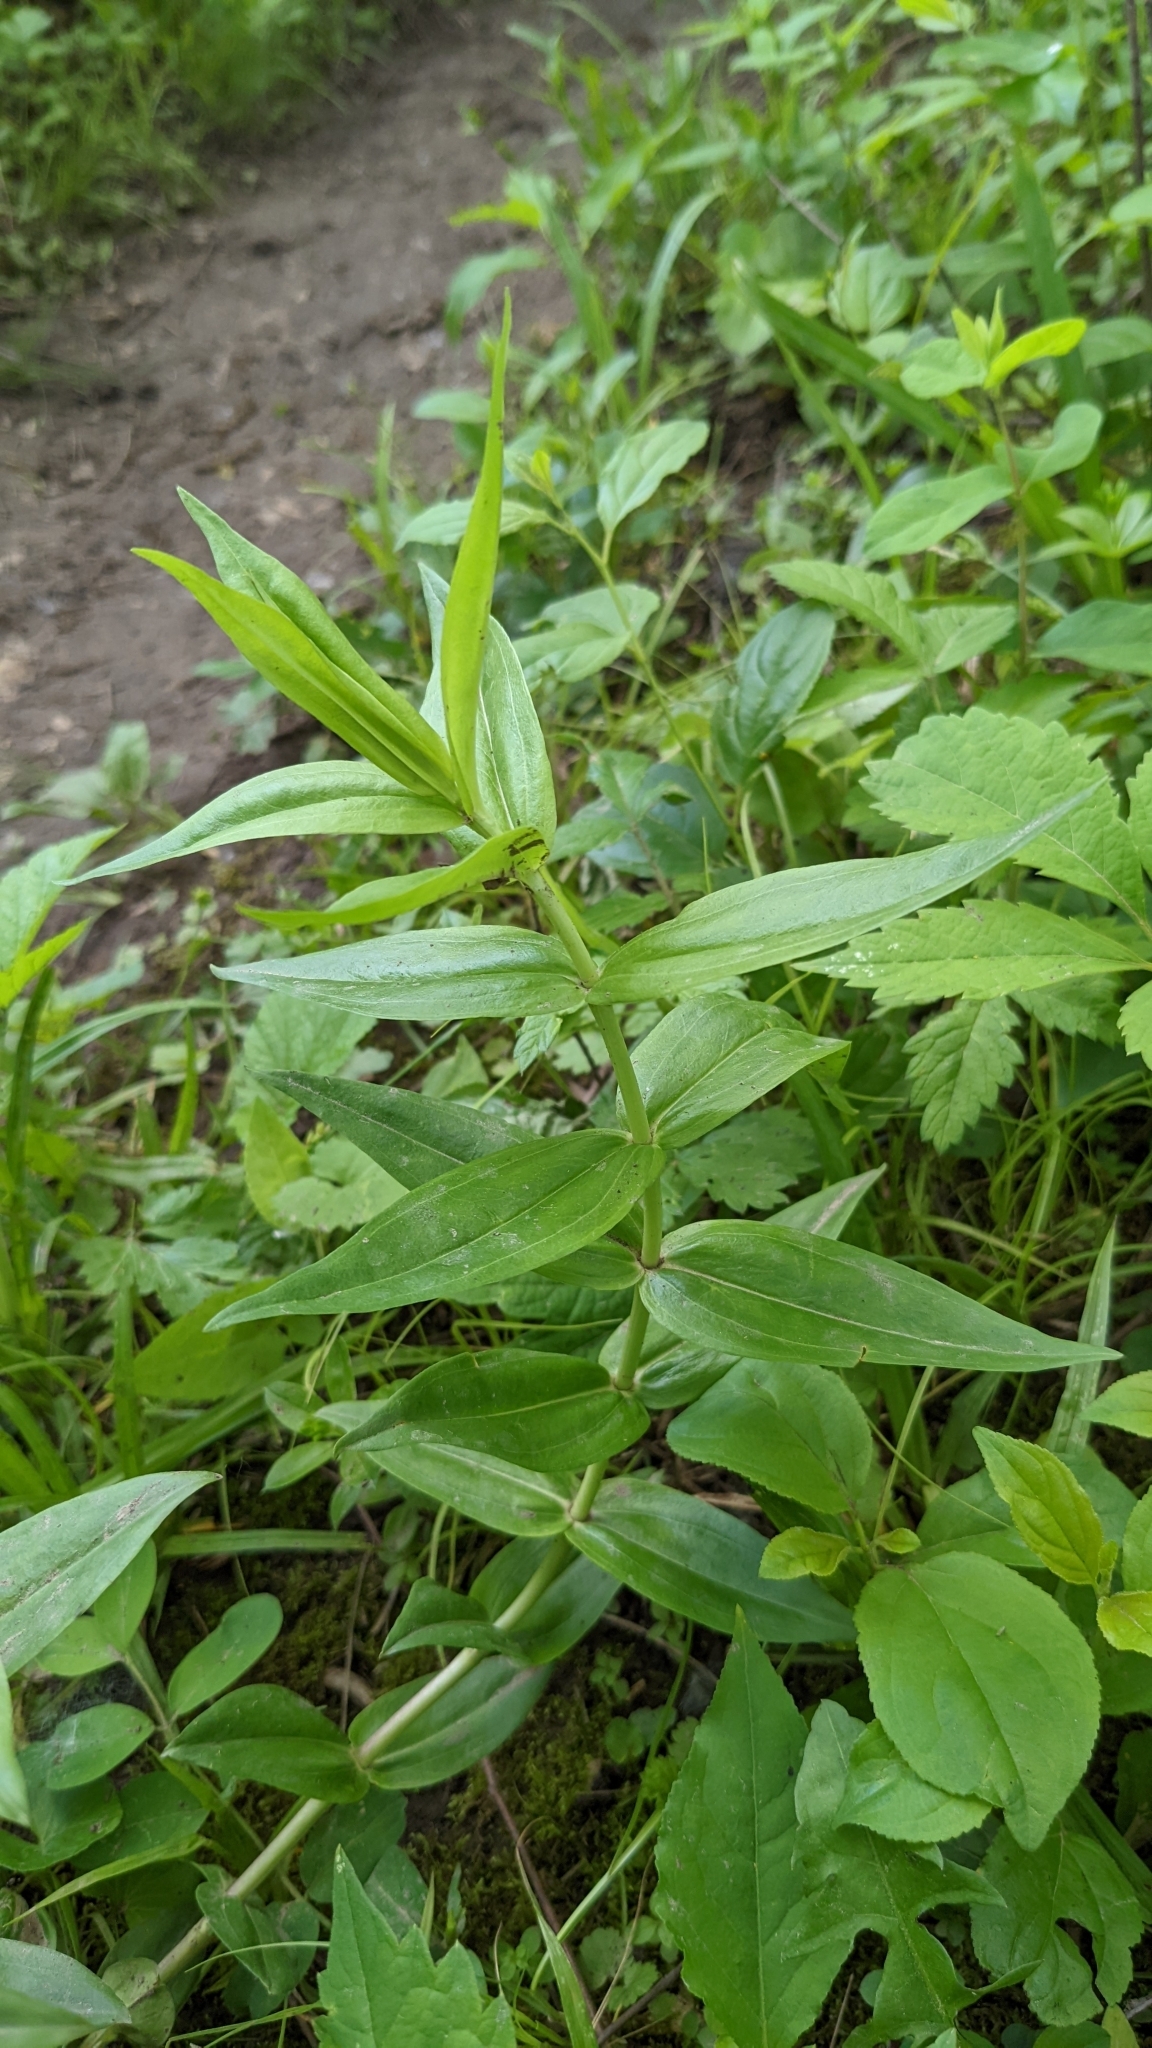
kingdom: Plantae
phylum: Tracheophyta
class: Magnoliopsida
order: Gentianales
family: Gentianaceae
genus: Gentiana
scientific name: Gentiana alba
